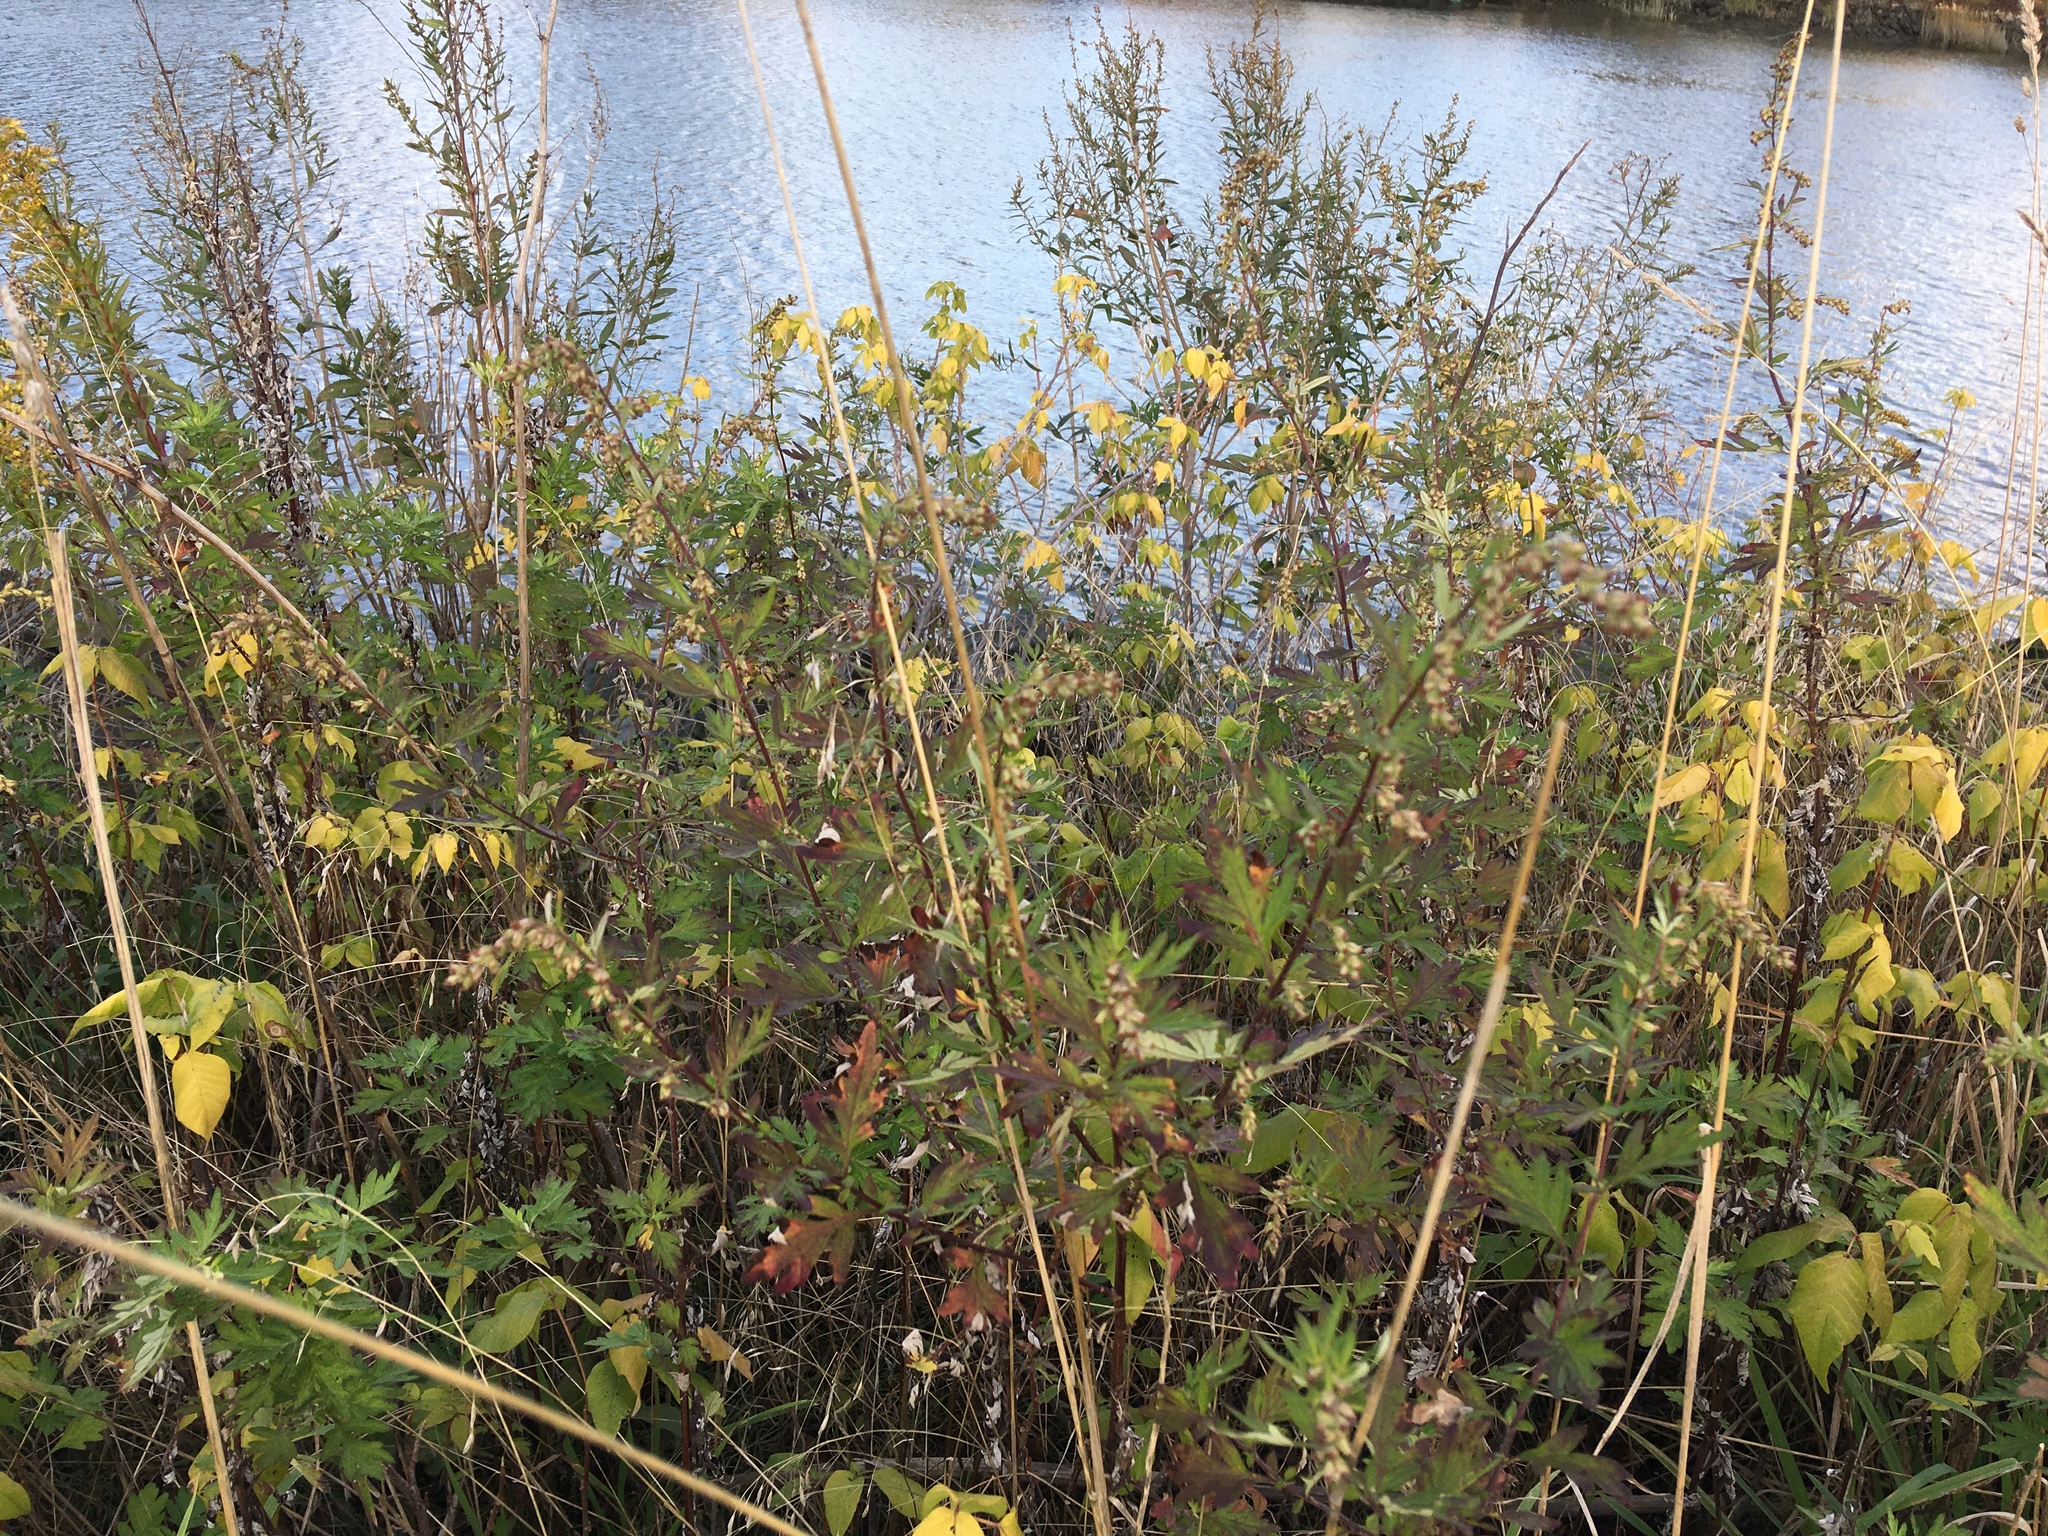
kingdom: Plantae
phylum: Tracheophyta
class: Magnoliopsida
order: Asterales
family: Asteraceae
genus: Artemisia
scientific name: Artemisia vulgaris
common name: Mugwort
